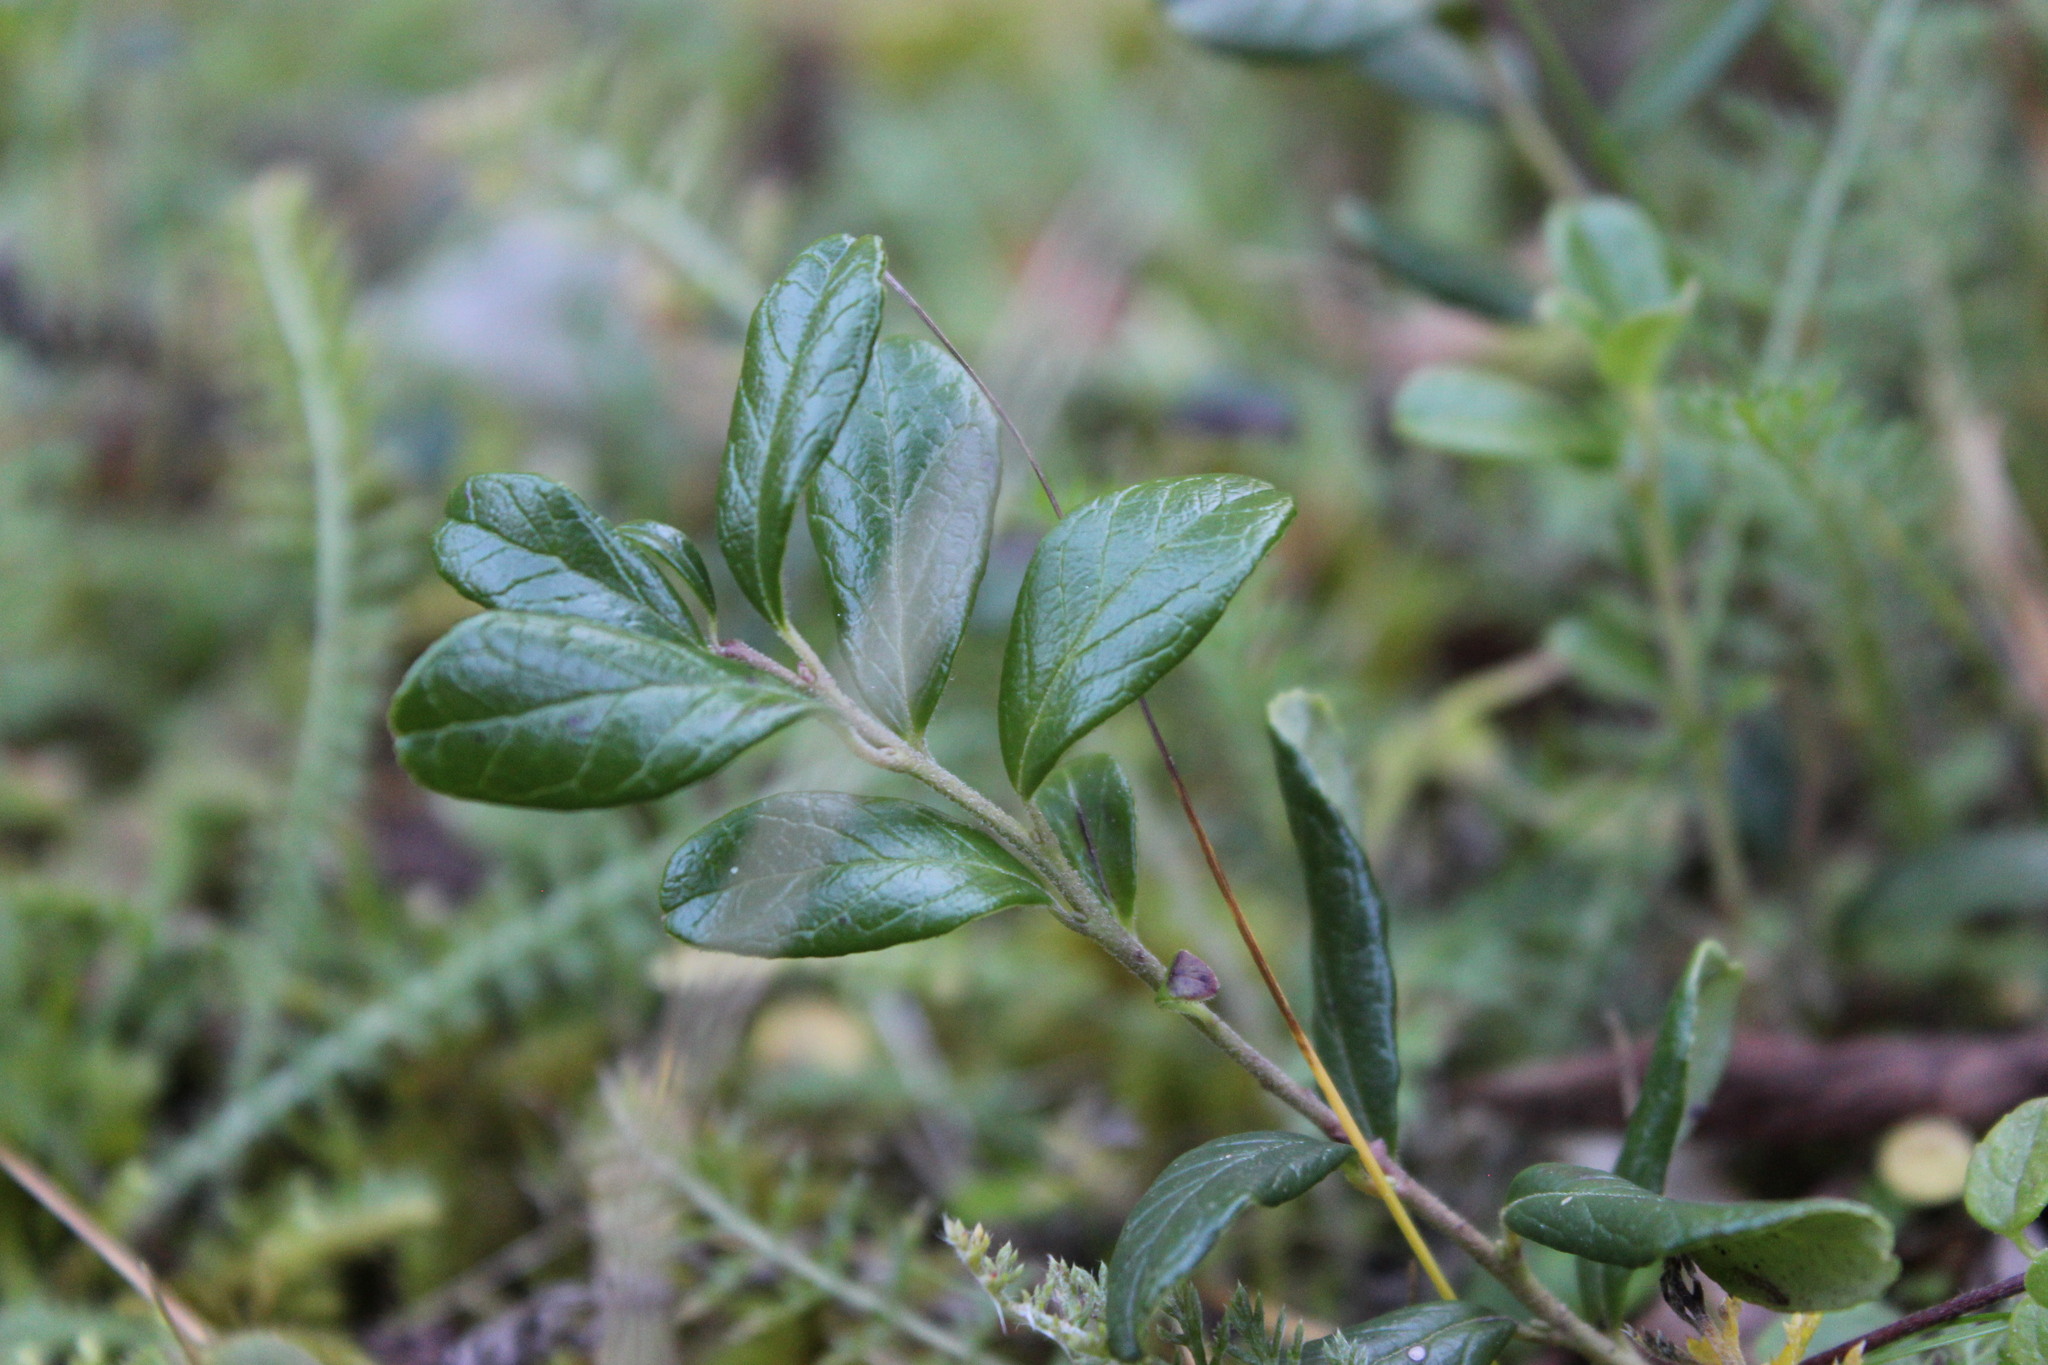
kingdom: Plantae
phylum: Tracheophyta
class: Magnoliopsida
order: Ericales
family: Ericaceae
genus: Vaccinium
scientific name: Vaccinium vitis-idaea
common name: Cowberry
